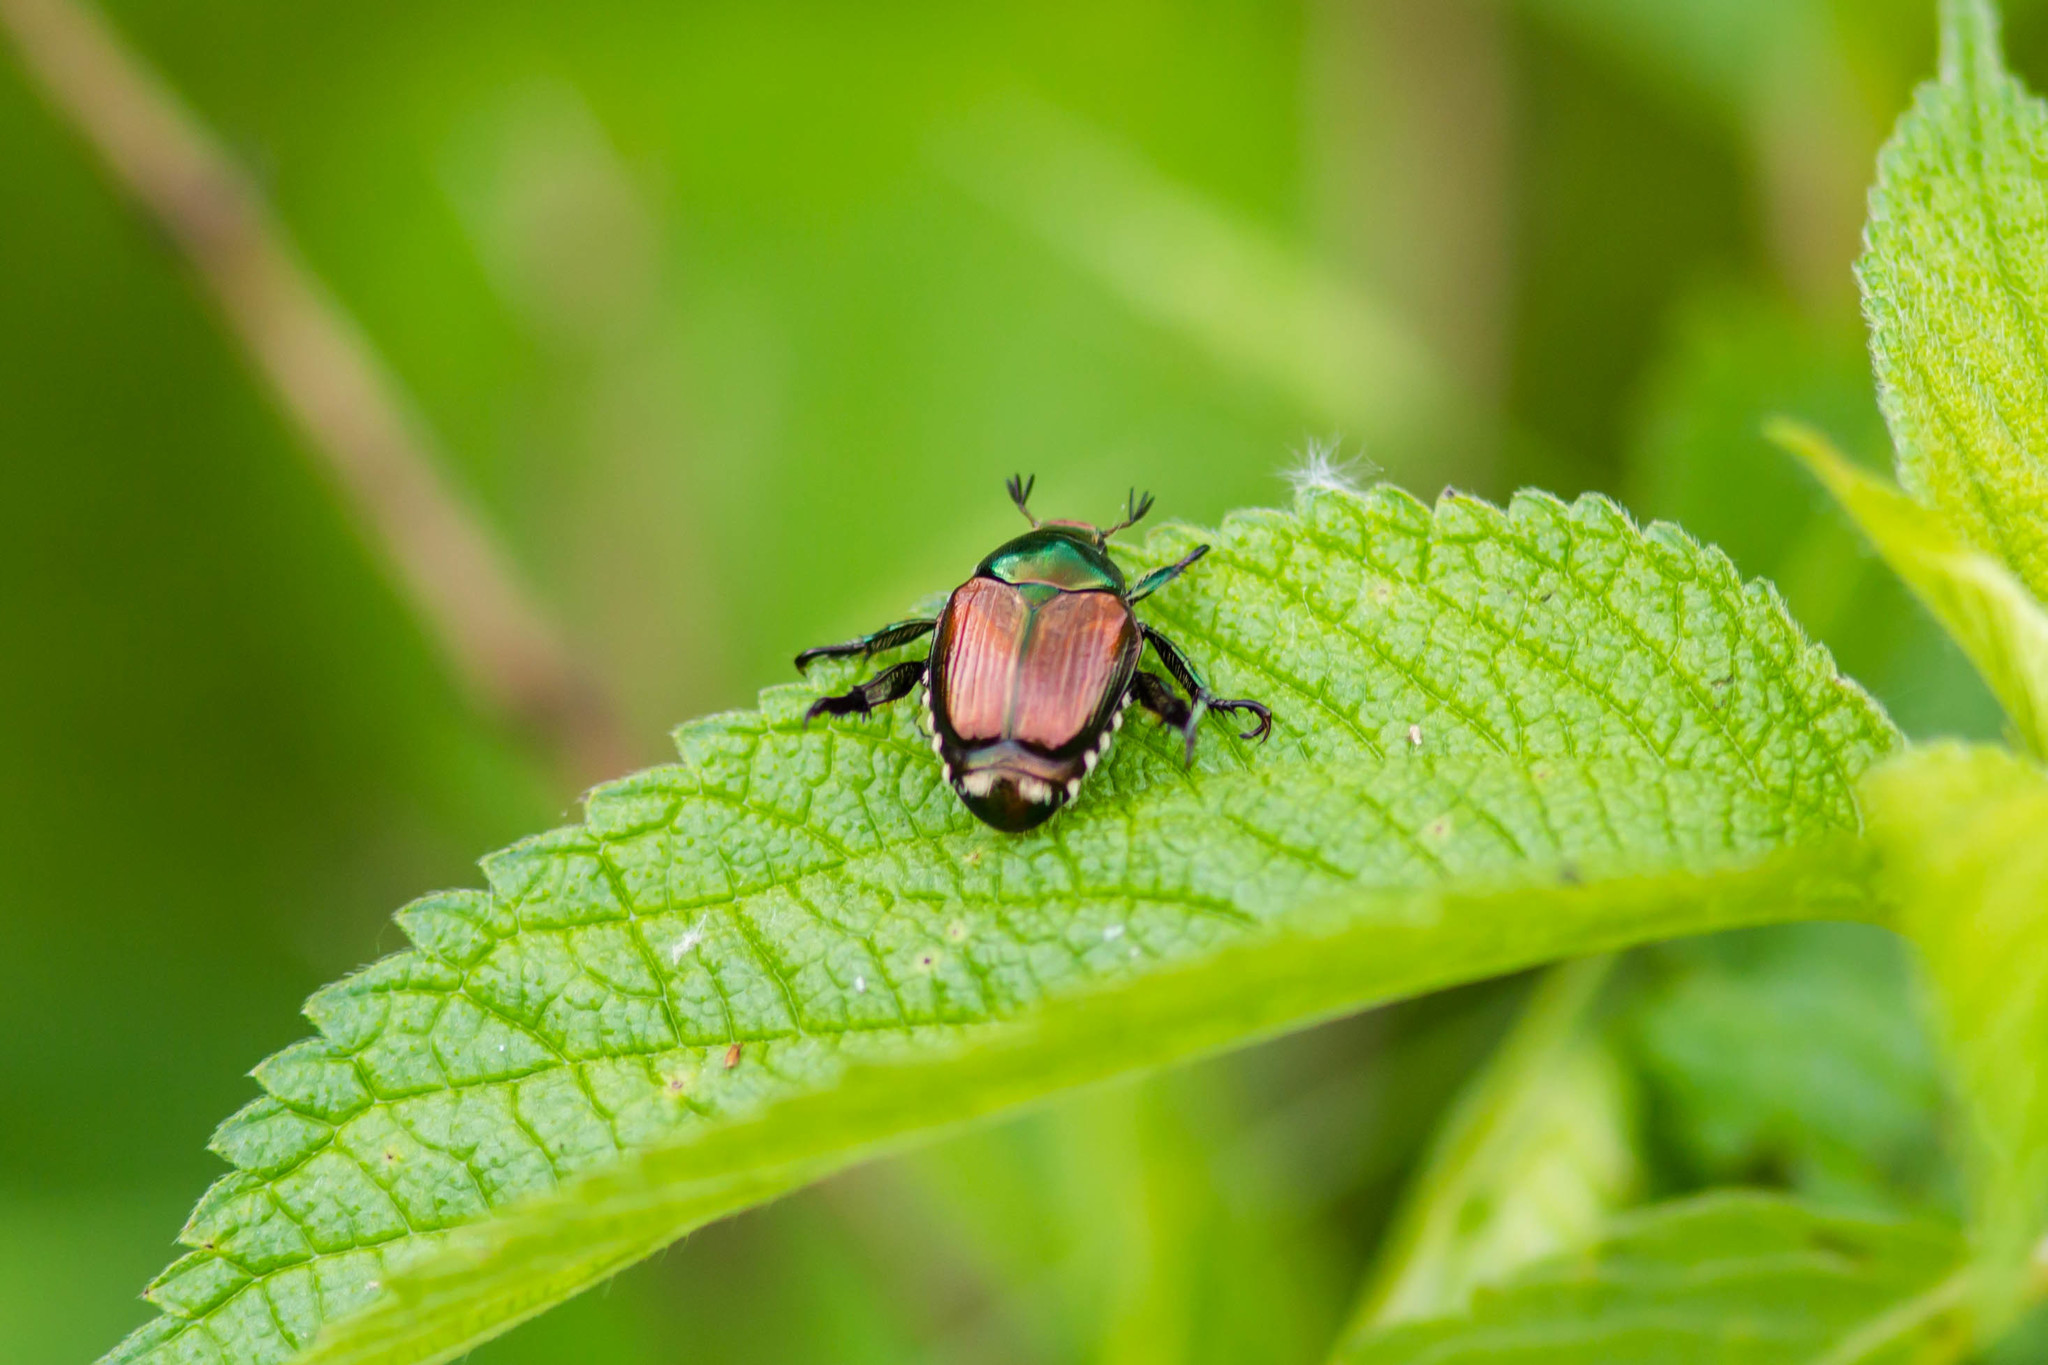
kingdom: Animalia
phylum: Arthropoda
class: Insecta
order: Coleoptera
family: Scarabaeidae
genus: Popillia
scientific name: Popillia japonica
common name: Japanese beetle
